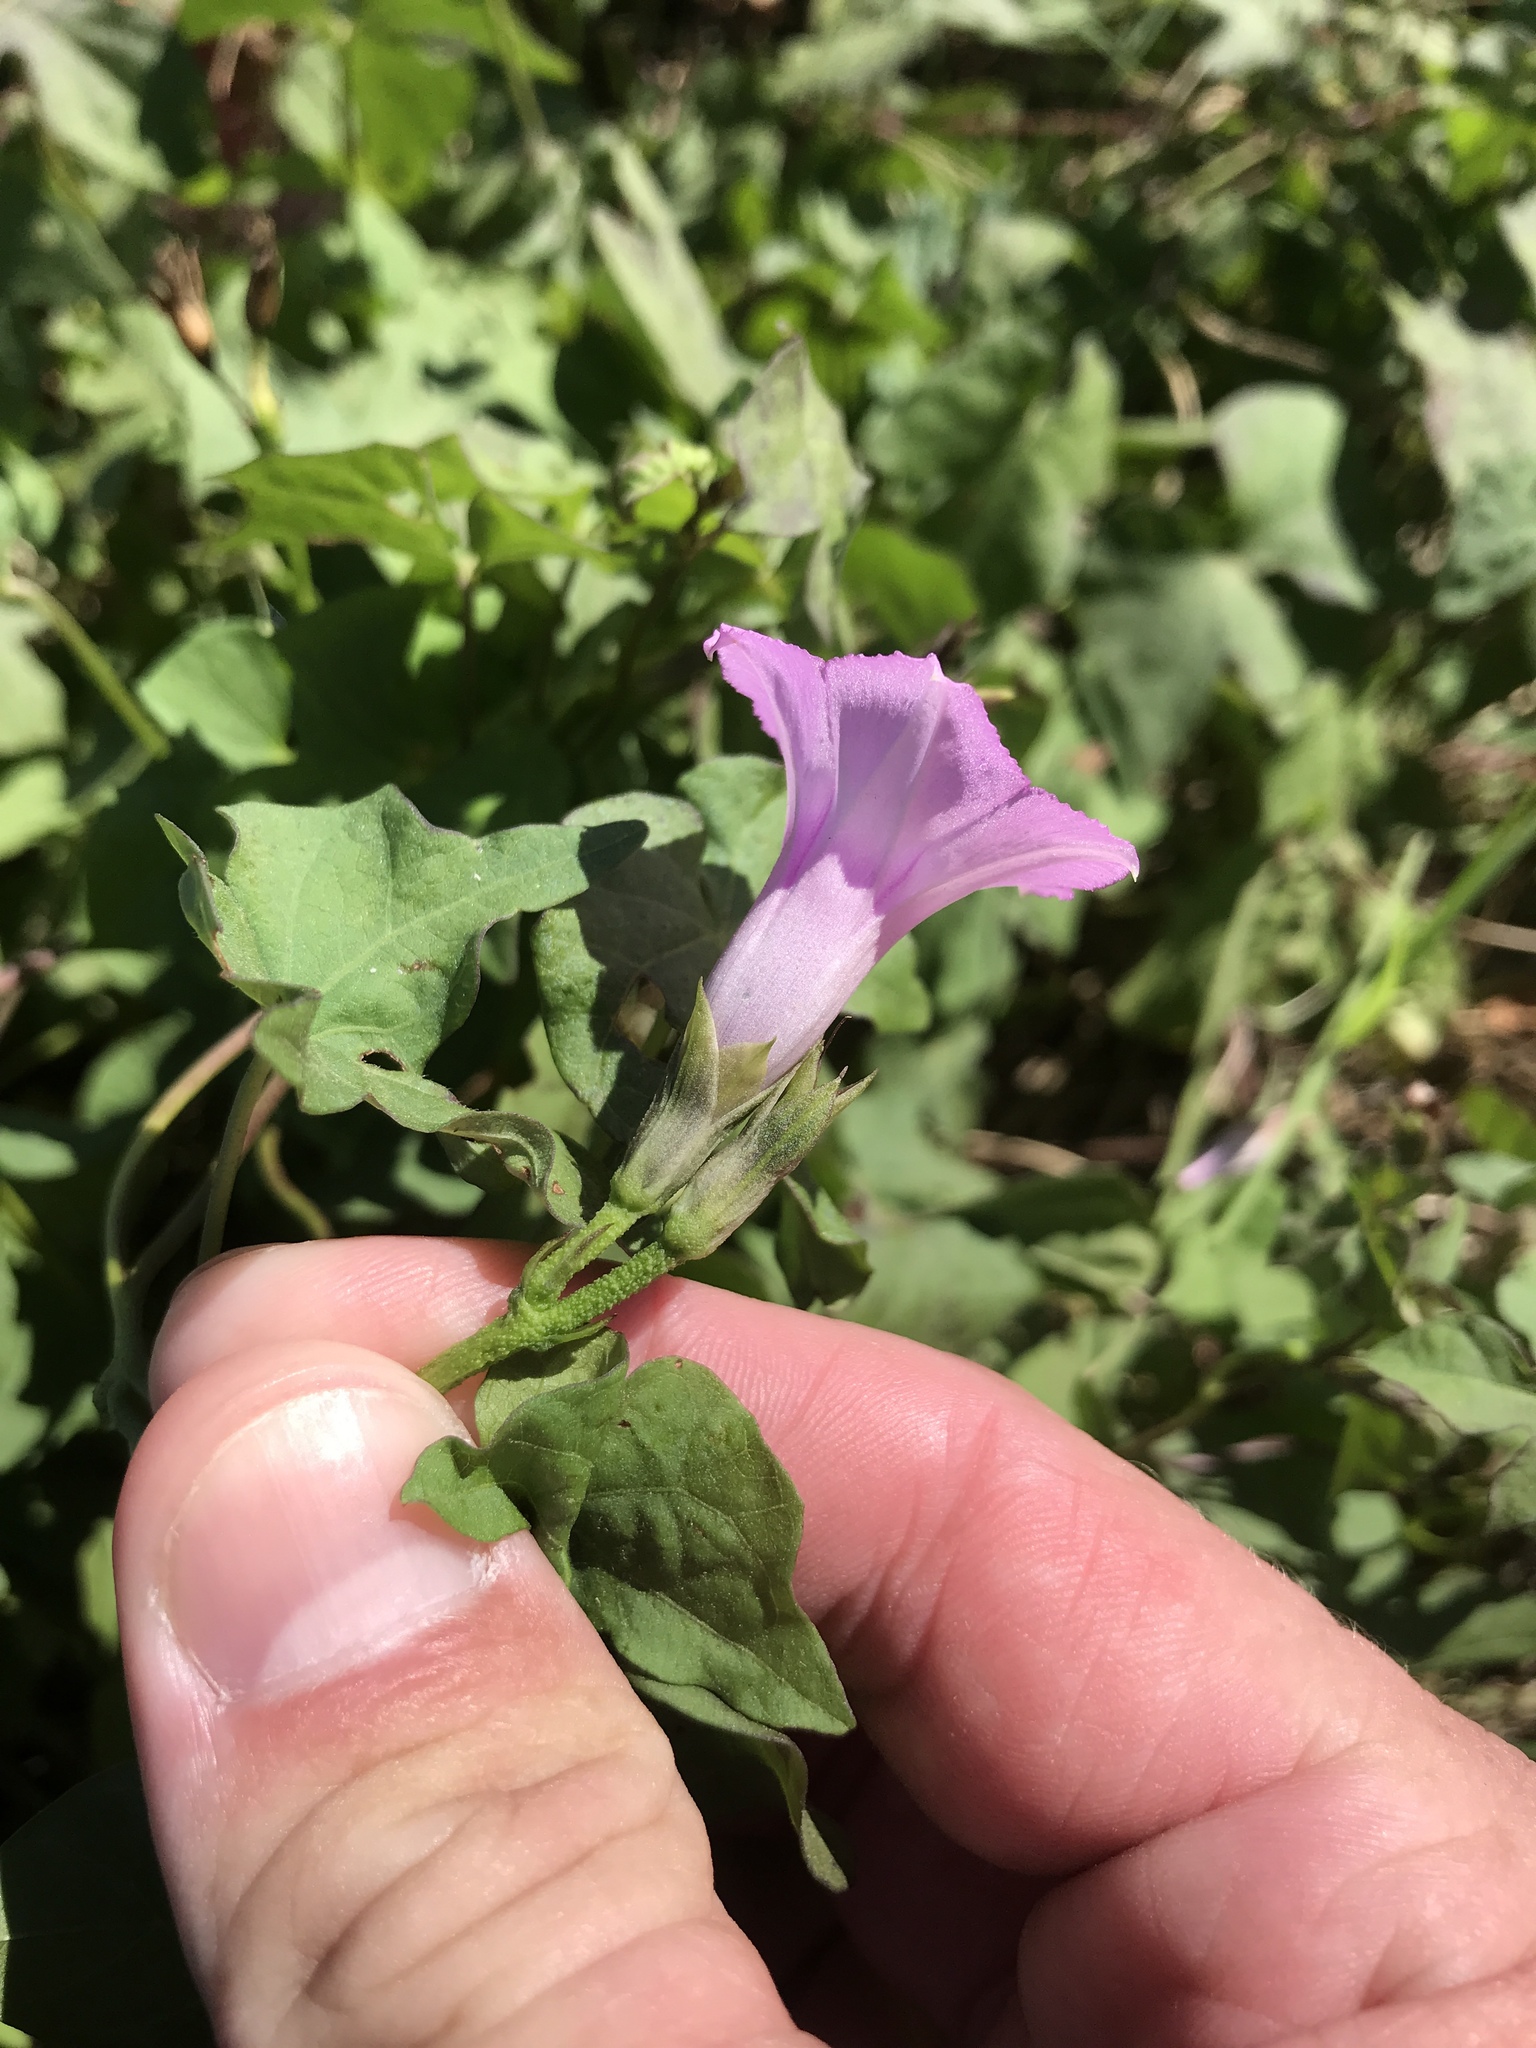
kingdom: Plantae
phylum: Tracheophyta
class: Magnoliopsida
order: Solanales
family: Convolvulaceae
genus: Ipomoea
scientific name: Ipomoea cordatotriloba
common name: Cotton morning glory
